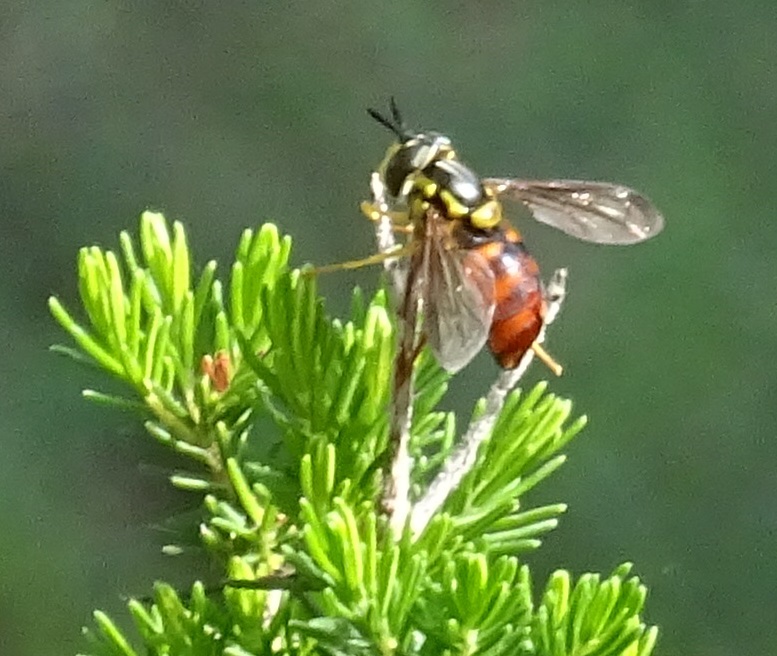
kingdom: Animalia
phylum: Arthropoda
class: Insecta
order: Diptera
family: Syrphidae
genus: Chrysotoxum
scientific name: Chrysotoxum triarcuatum
